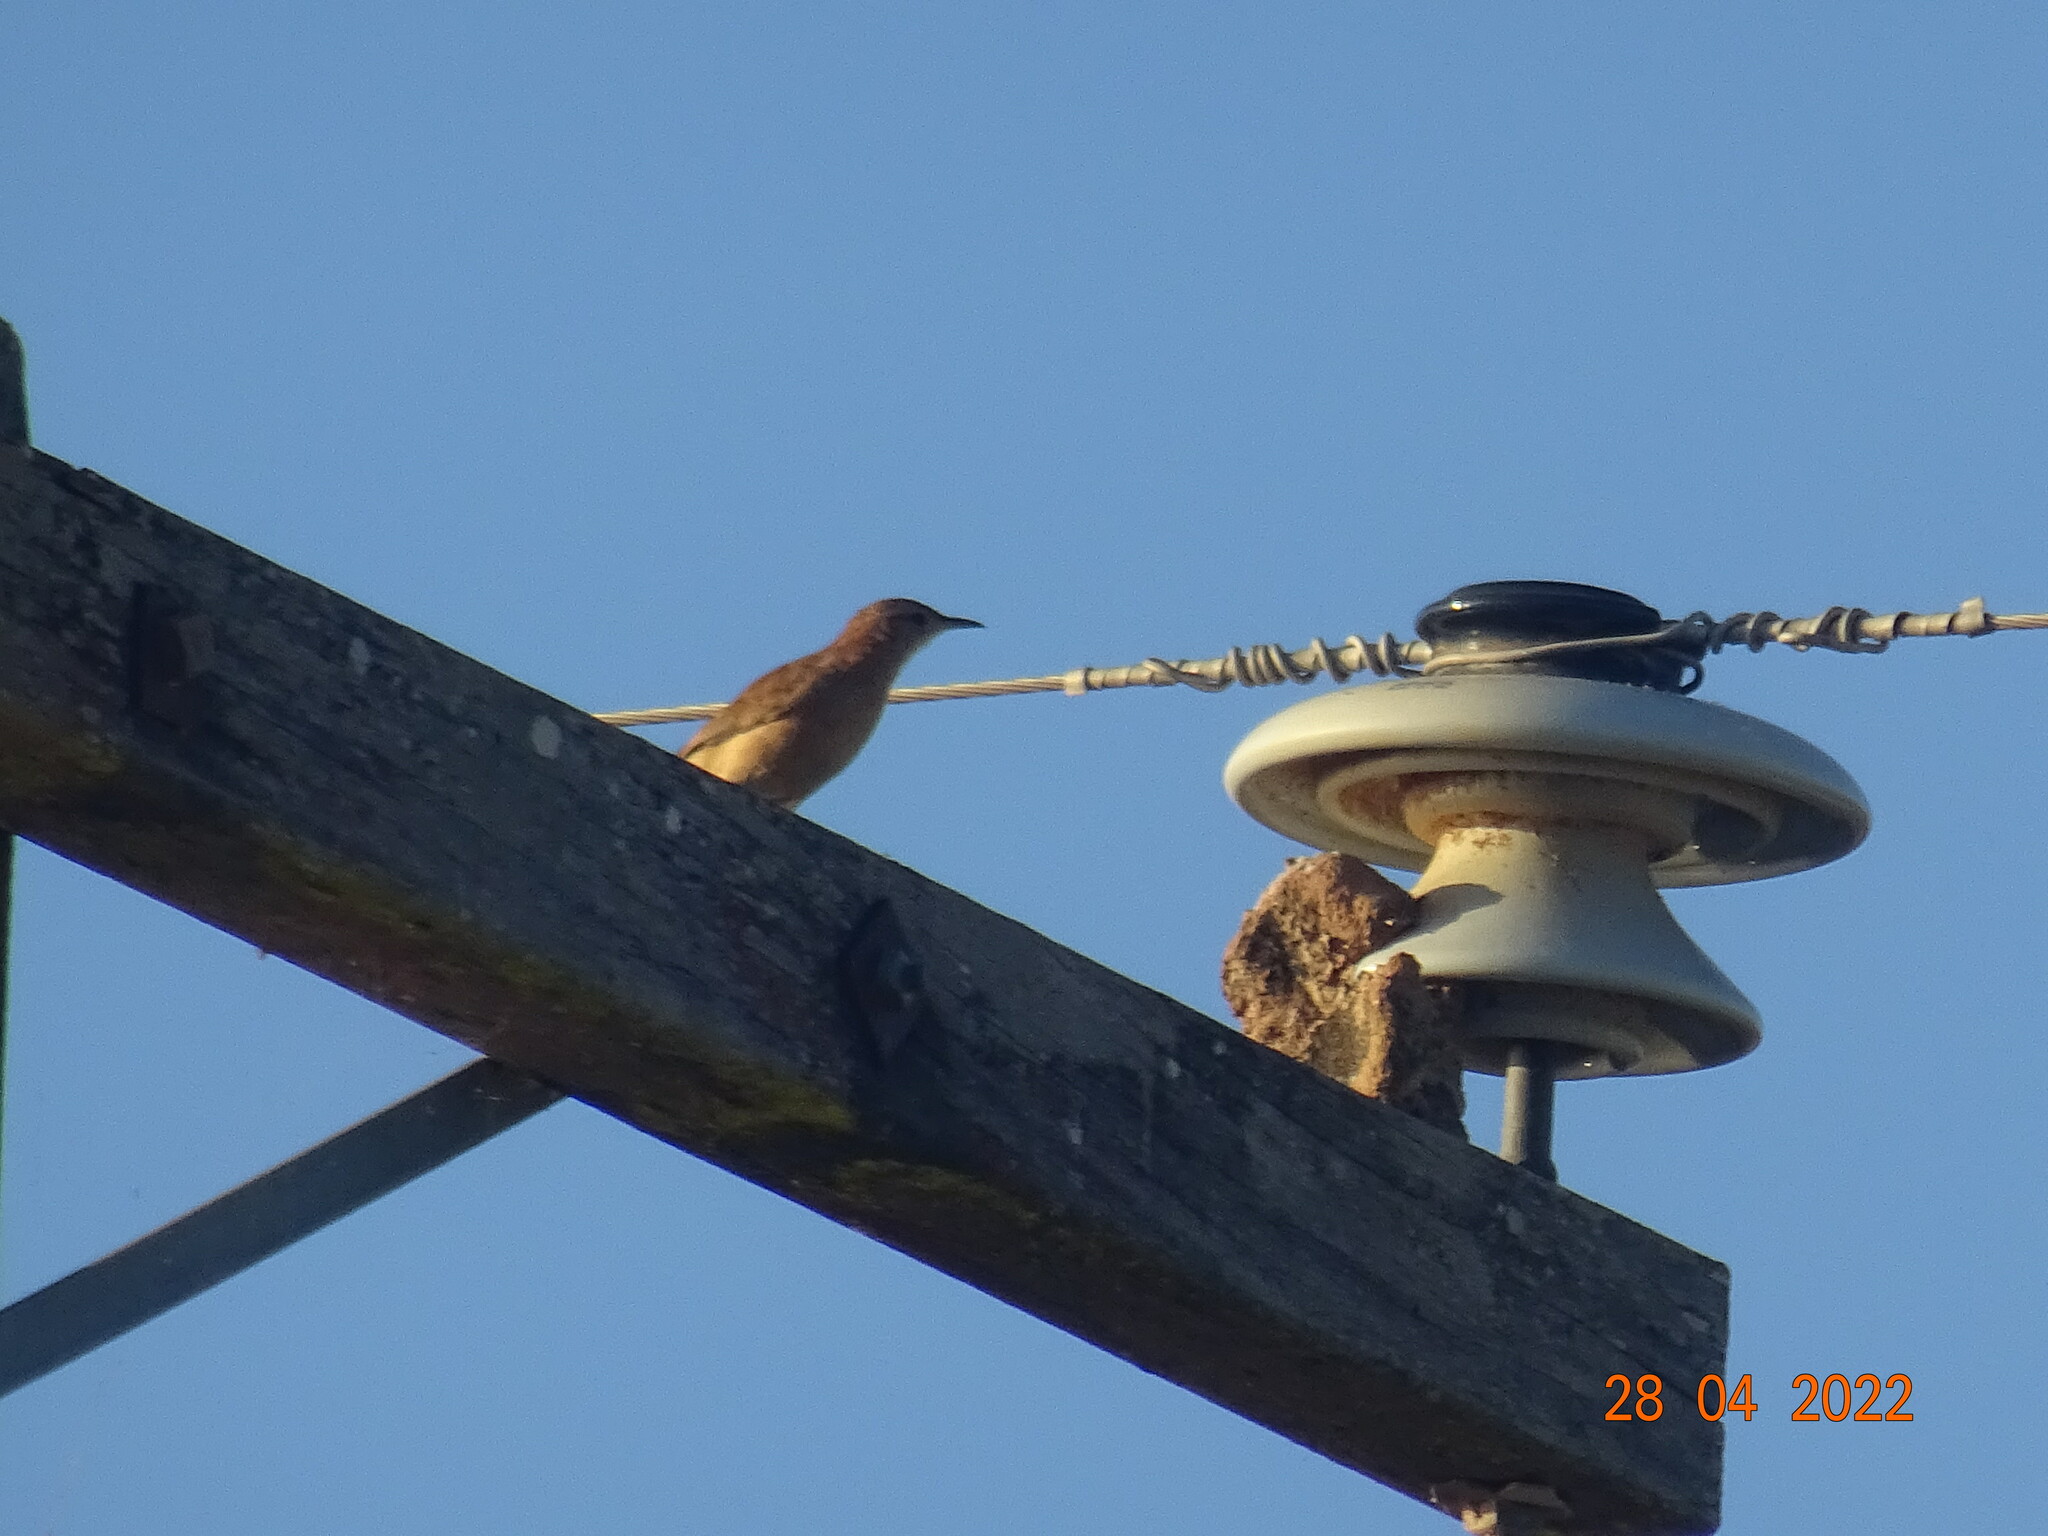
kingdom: Animalia
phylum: Chordata
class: Aves
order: Passeriformes
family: Furnariidae
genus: Furnarius
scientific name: Furnarius rufus
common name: Rufous hornero
